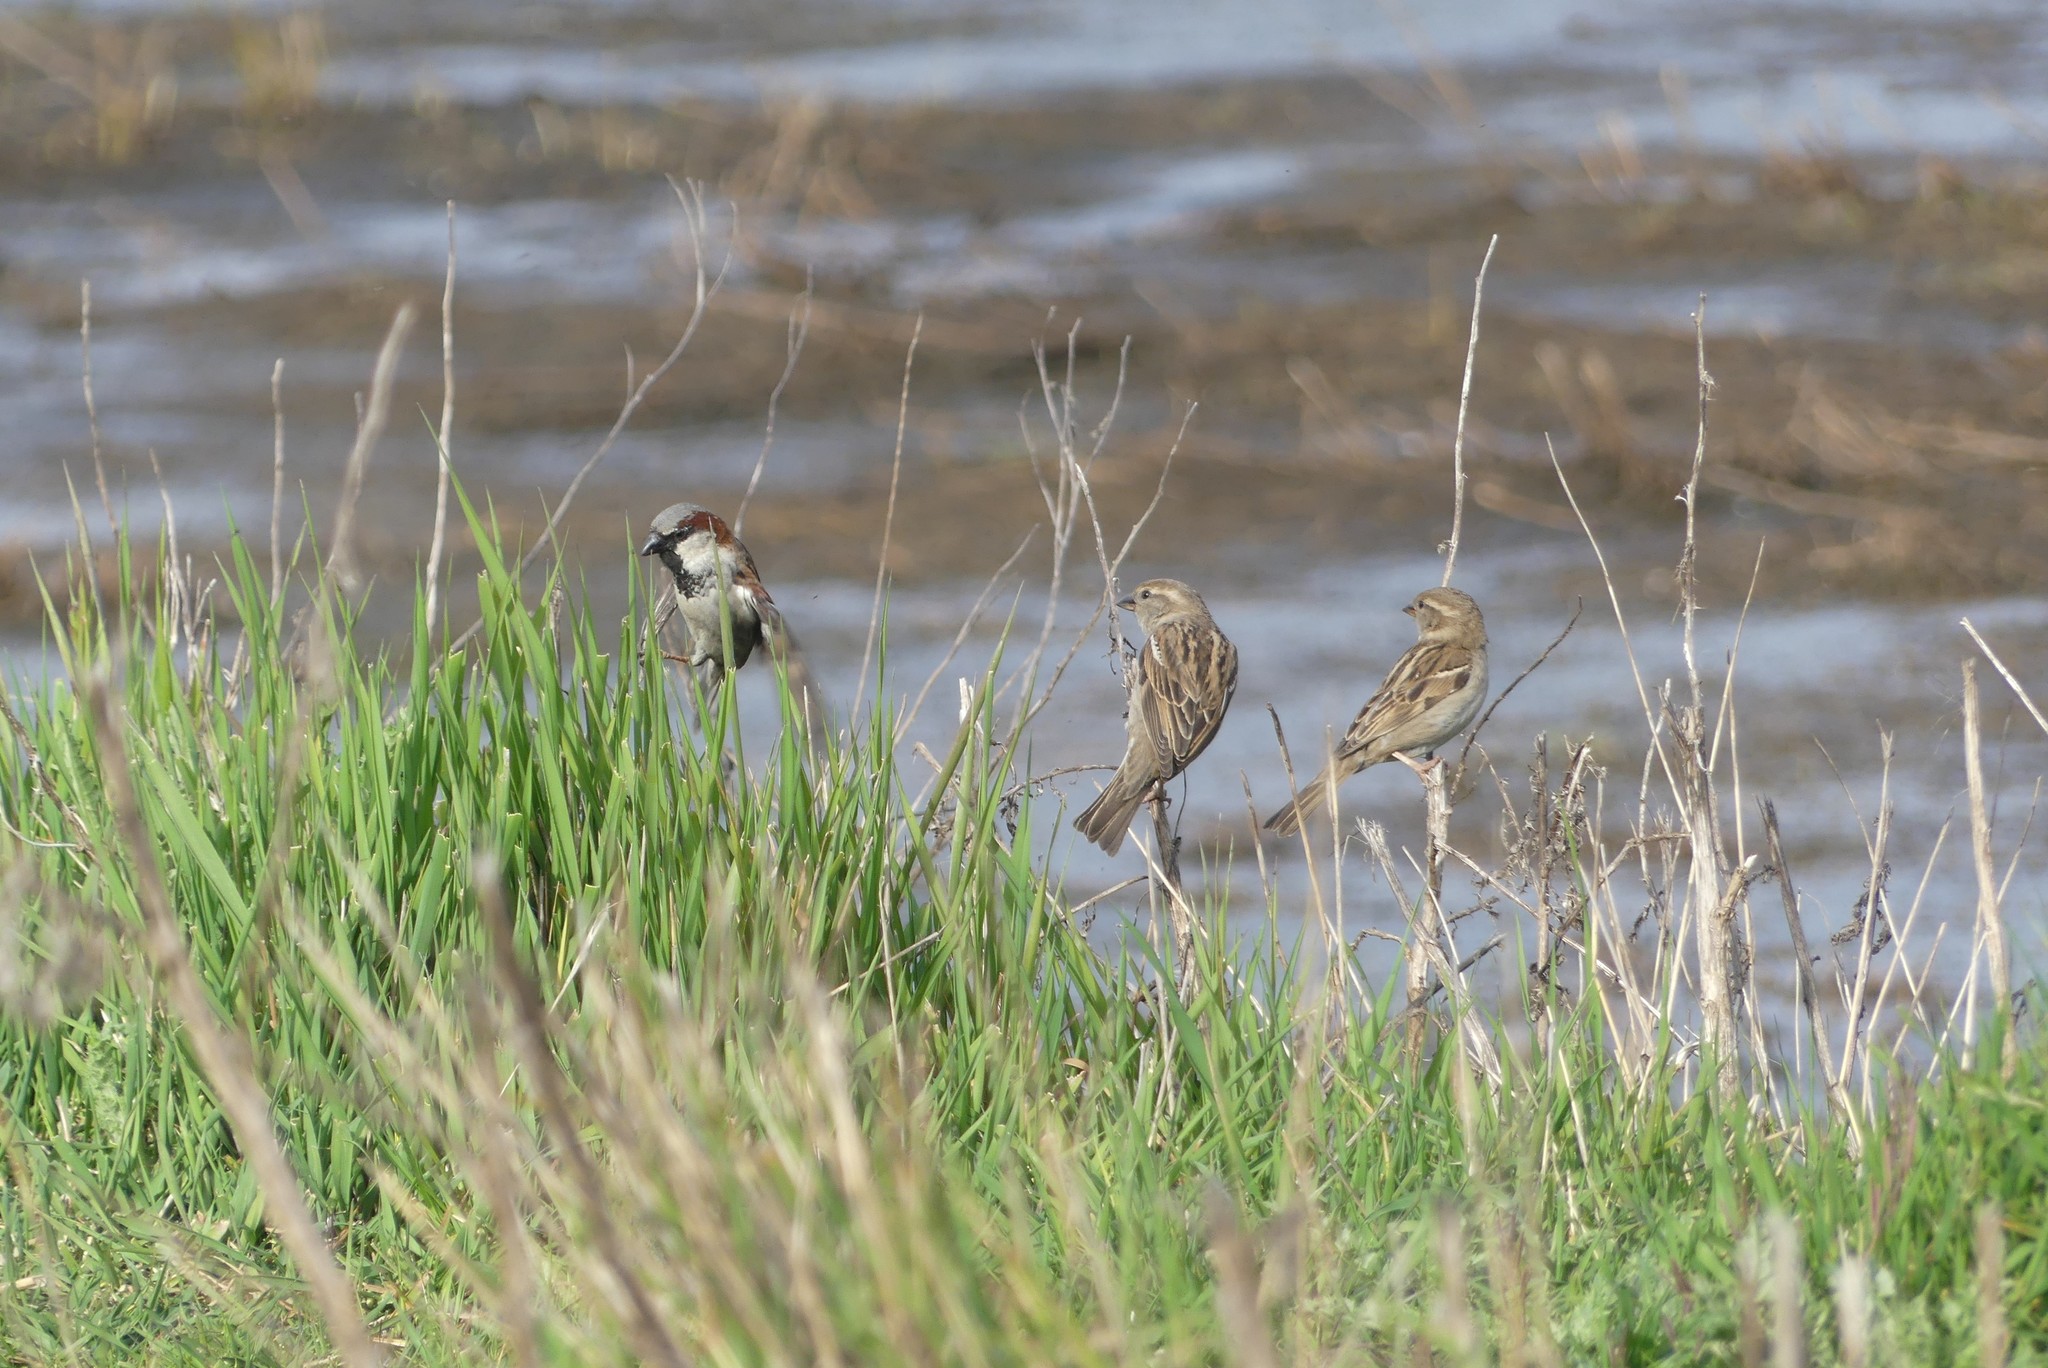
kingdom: Animalia
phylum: Chordata
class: Aves
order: Passeriformes
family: Passeridae
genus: Passer
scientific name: Passer domesticus
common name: House sparrow
